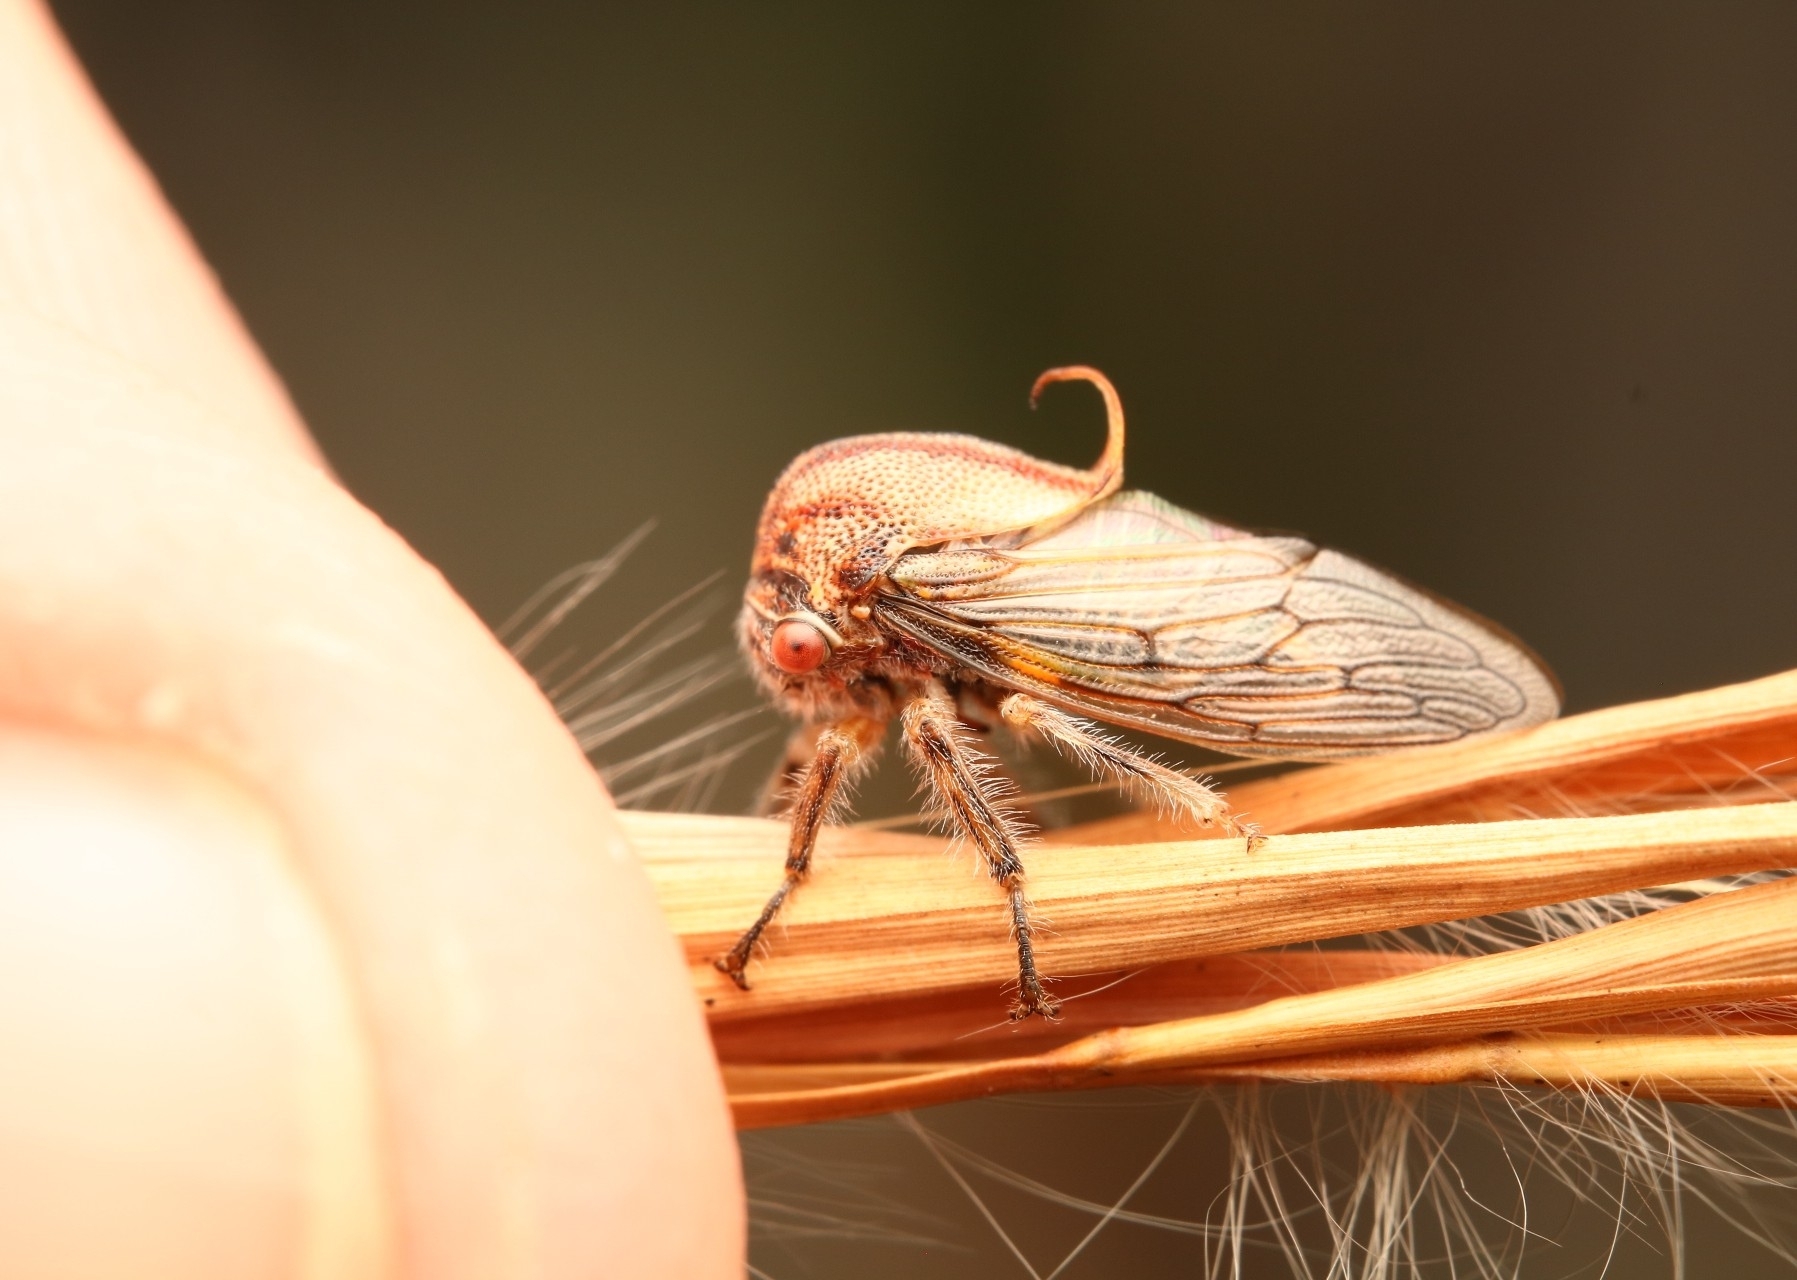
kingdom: Animalia
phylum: Arthropoda
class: Insecta
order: Hemiptera
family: Membracidae
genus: Platycotis
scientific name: Platycotis vittatus
